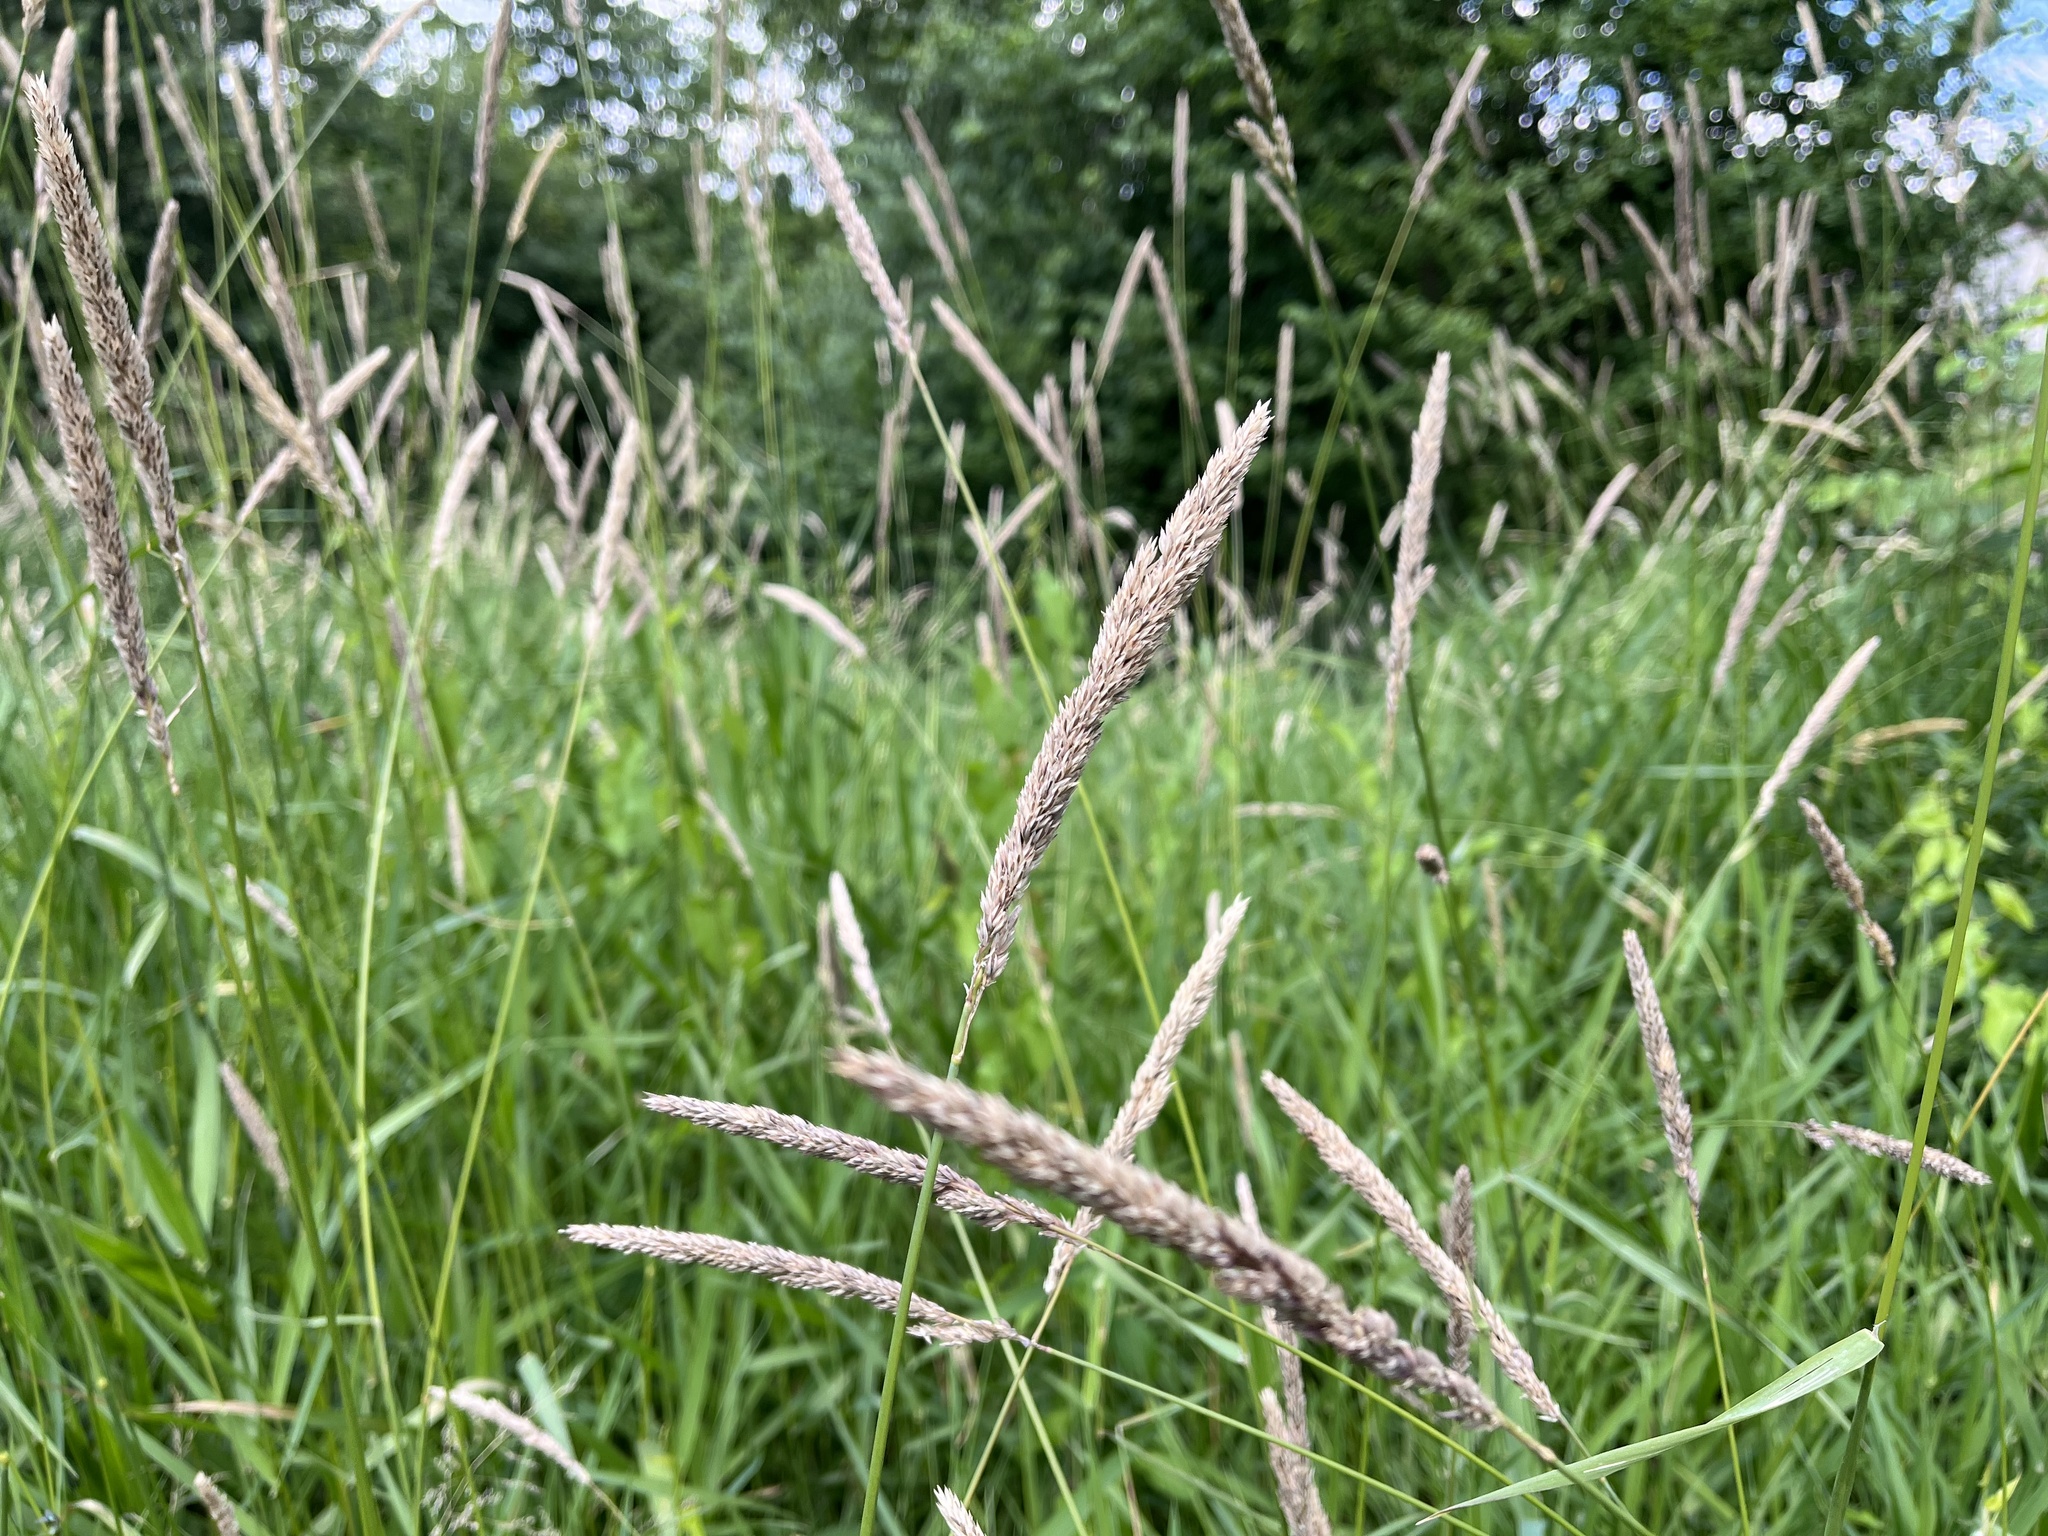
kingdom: Plantae
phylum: Tracheophyta
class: Liliopsida
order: Poales
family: Poaceae
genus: Phalaris
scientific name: Phalaris arundinacea
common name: Reed canary-grass
